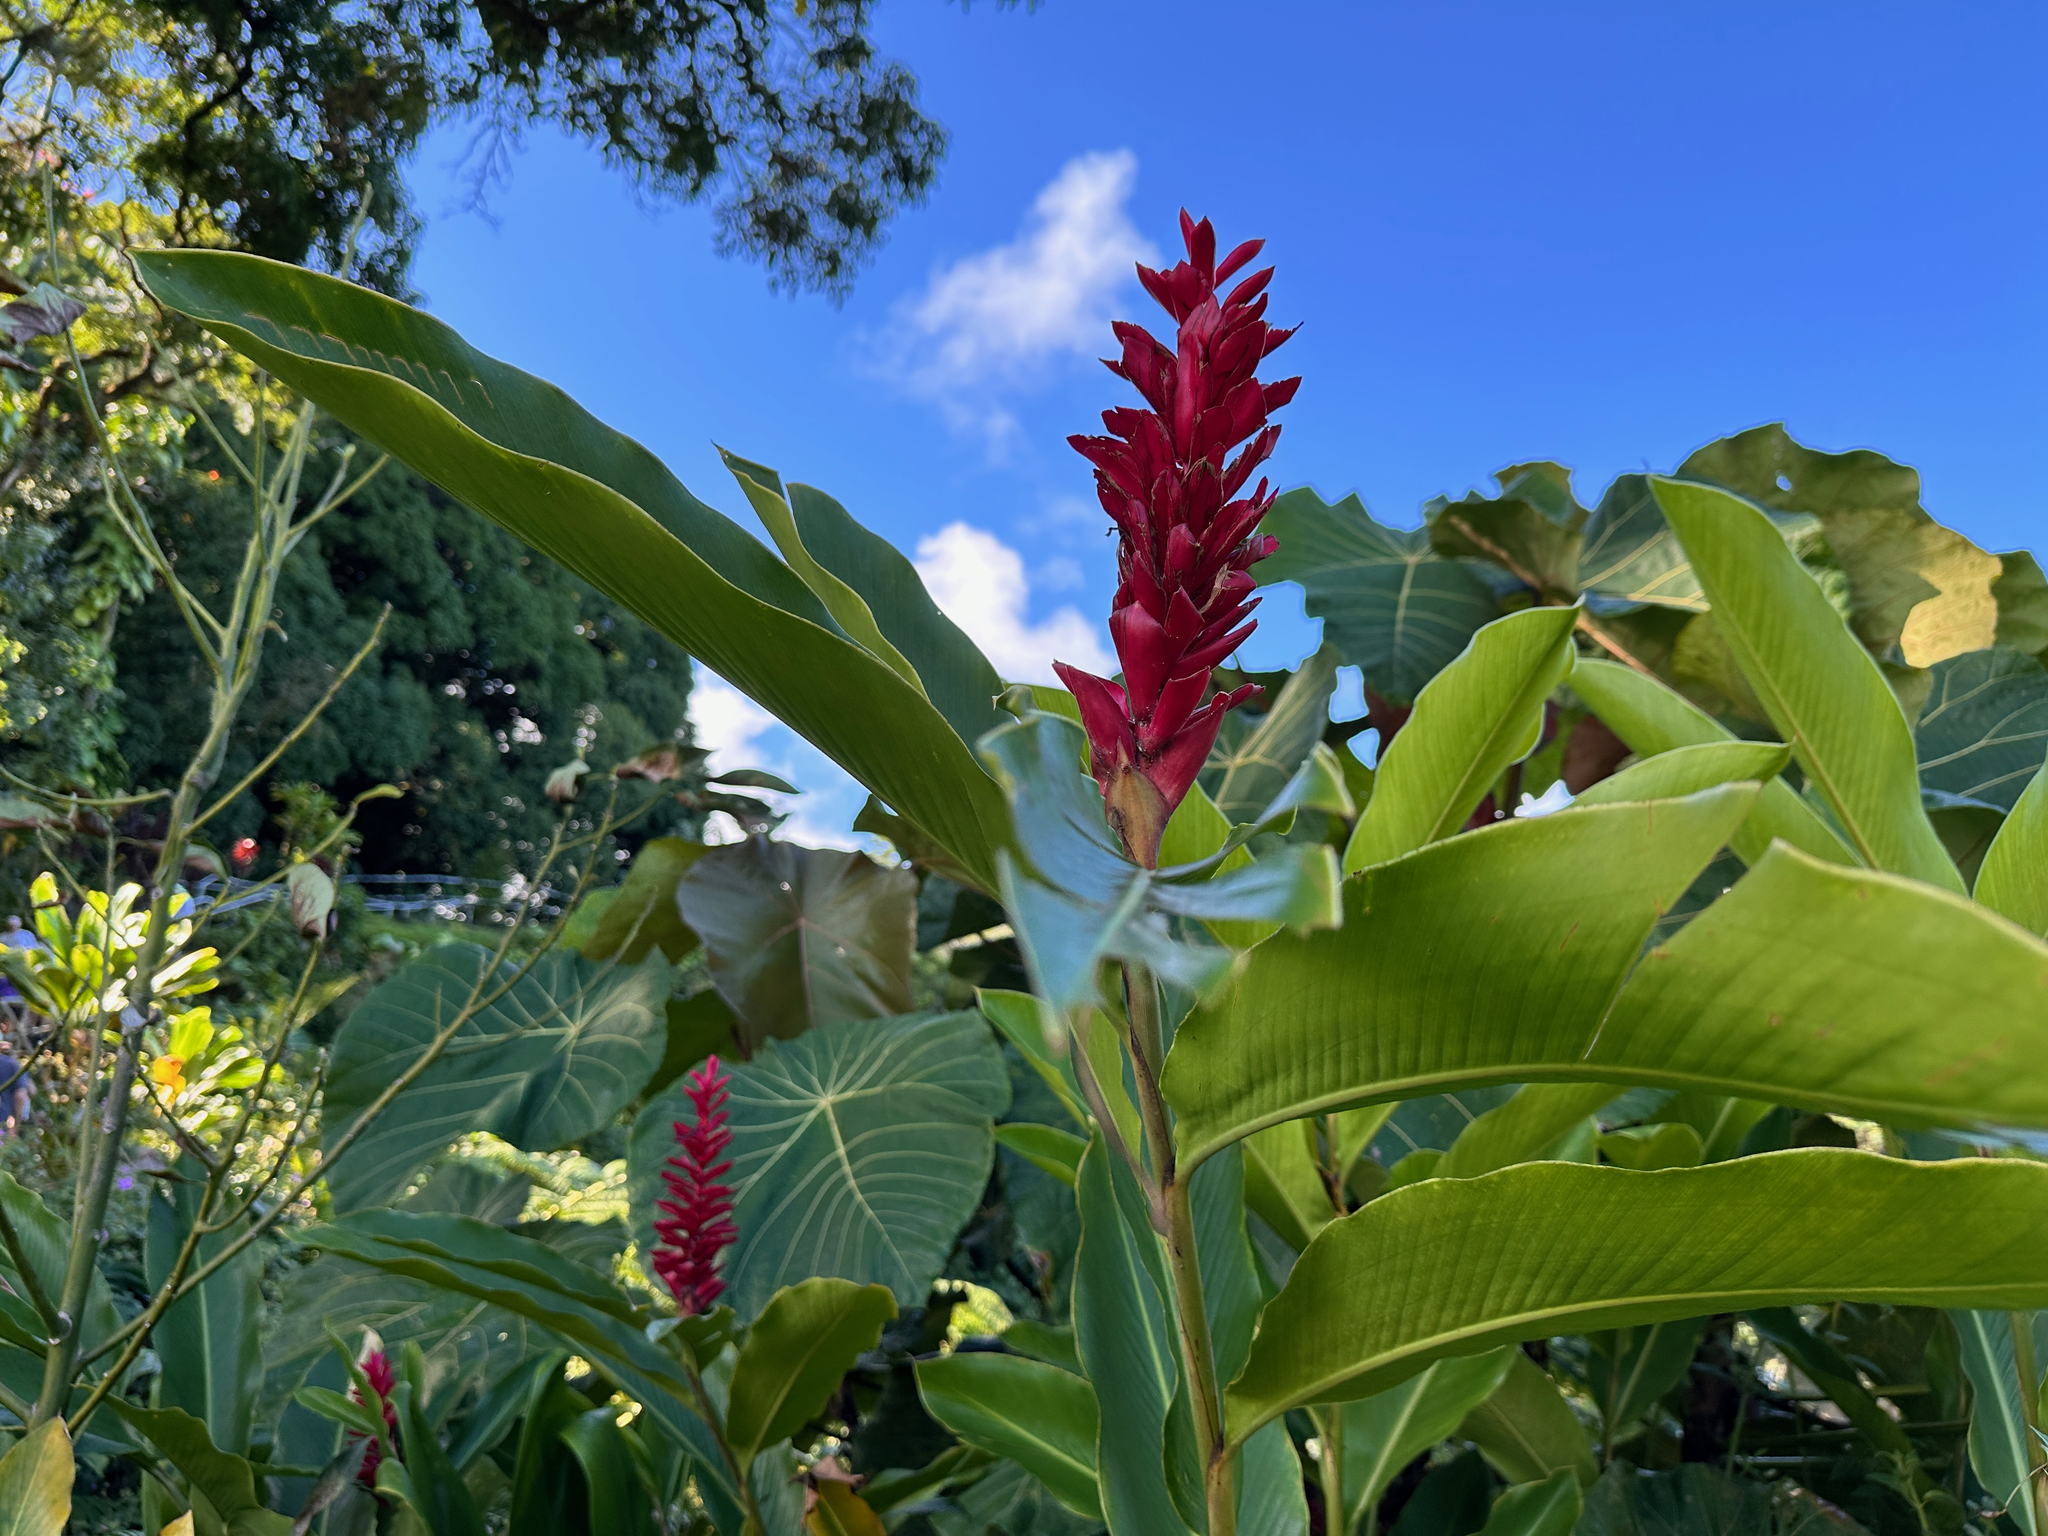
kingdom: Plantae
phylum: Tracheophyta
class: Liliopsida
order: Zingiberales
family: Zingiberaceae
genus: Alpinia
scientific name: Alpinia purpurata
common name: Red ginger
